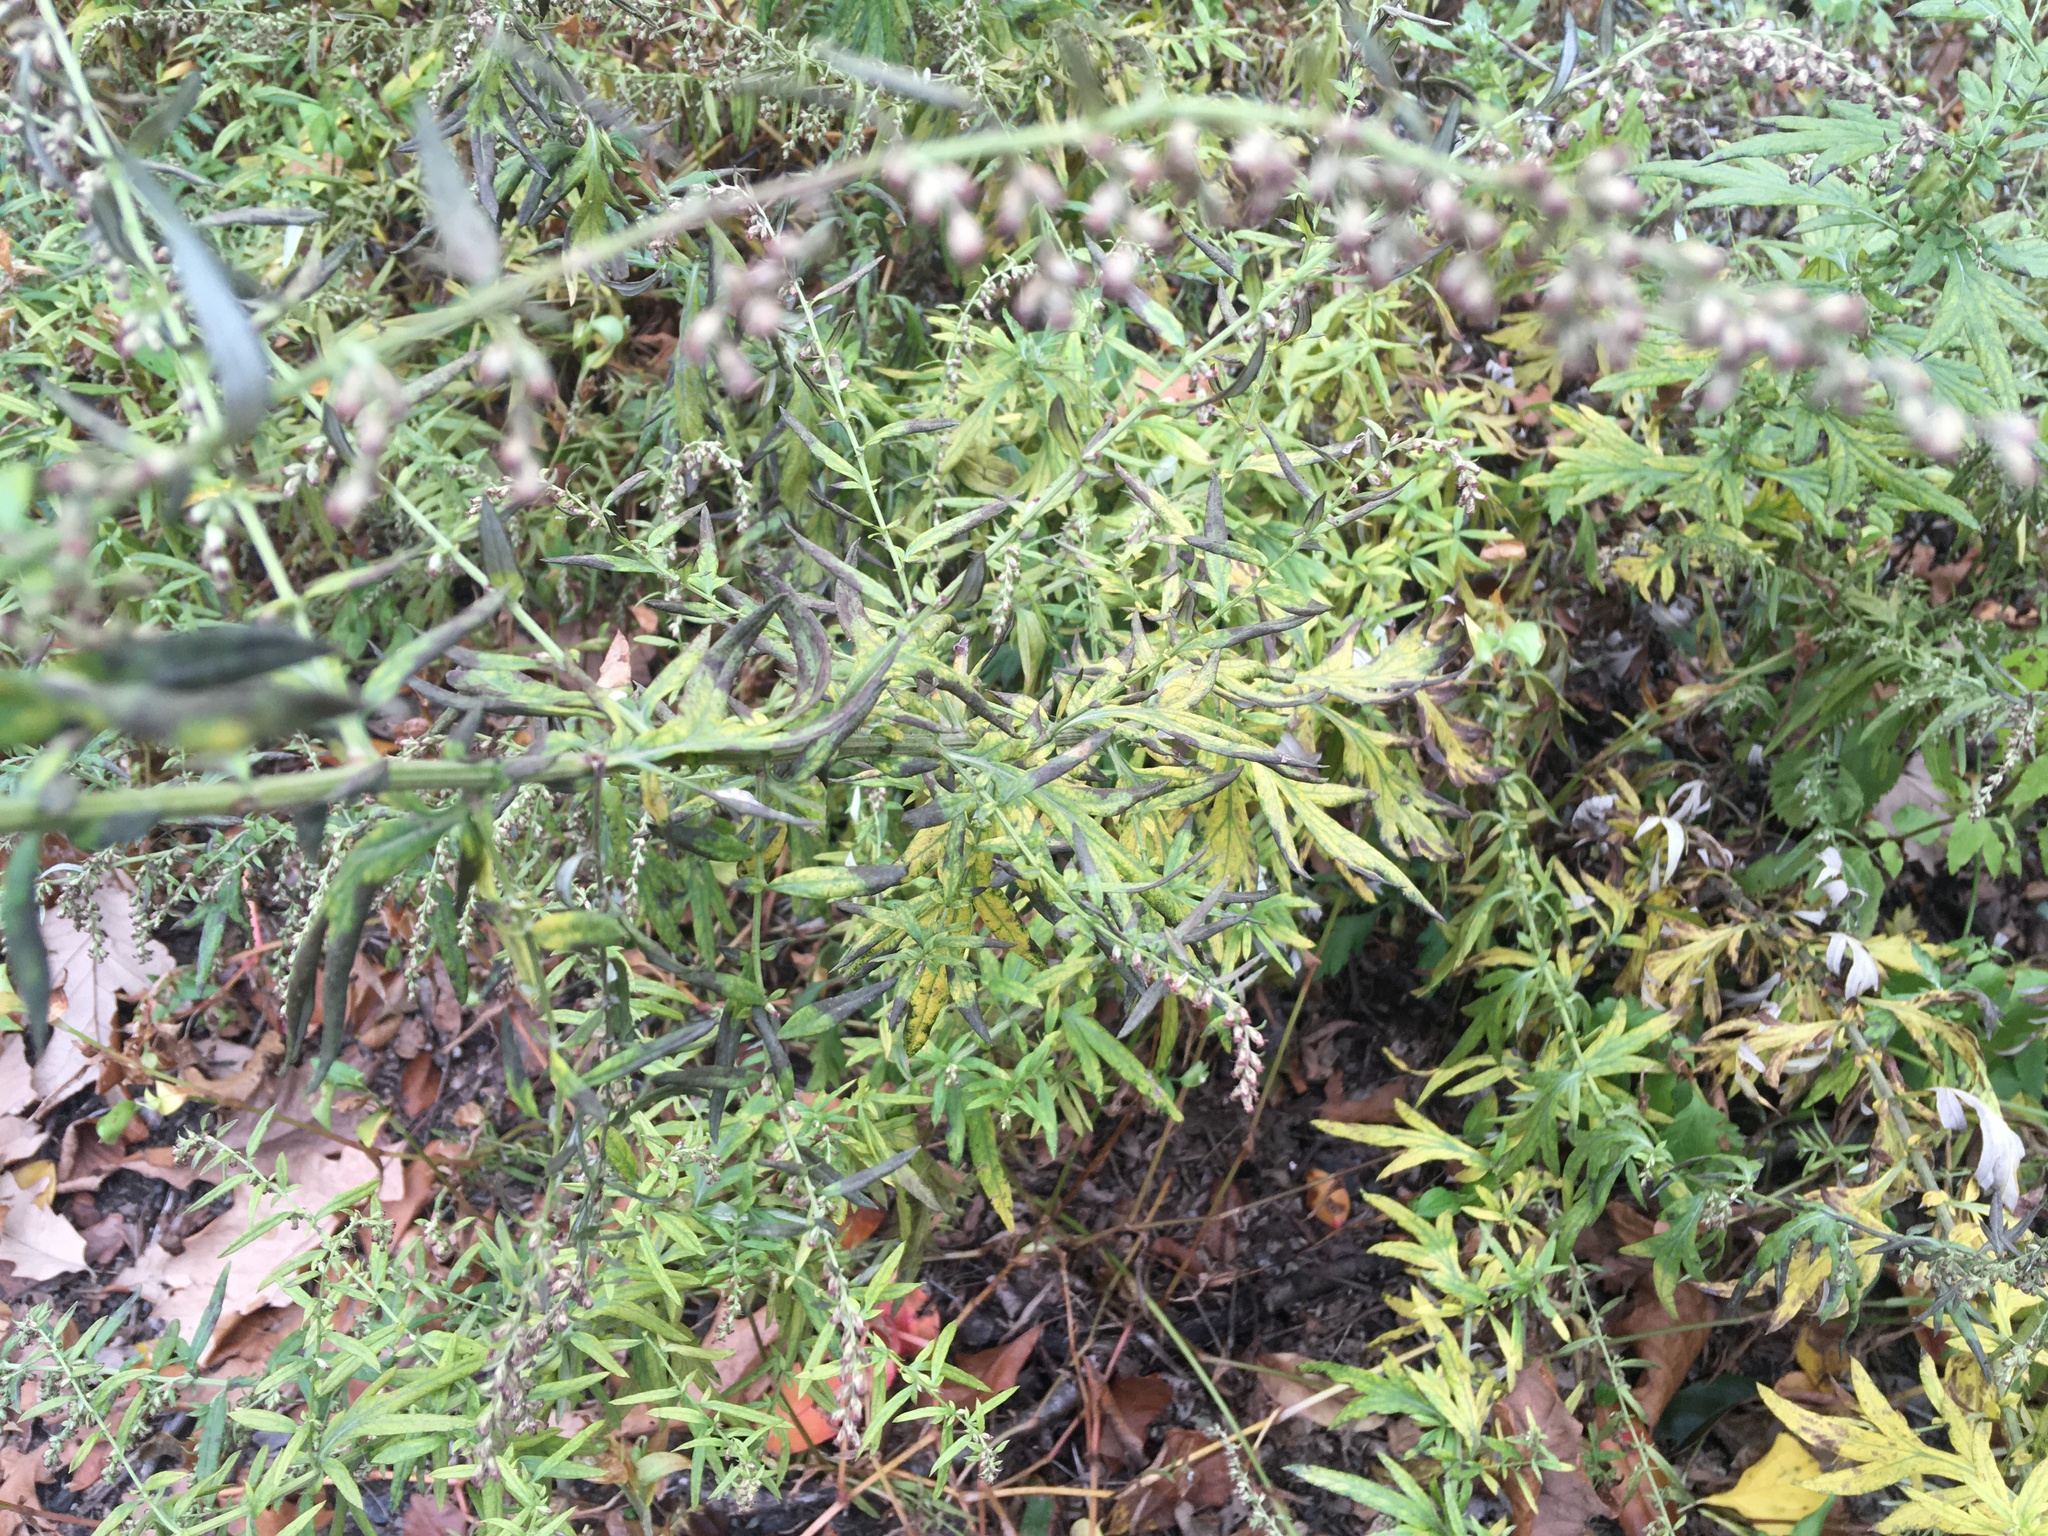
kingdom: Plantae
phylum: Tracheophyta
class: Magnoliopsida
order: Asterales
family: Asteraceae
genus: Artemisia
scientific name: Artemisia vulgaris
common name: Mugwort
